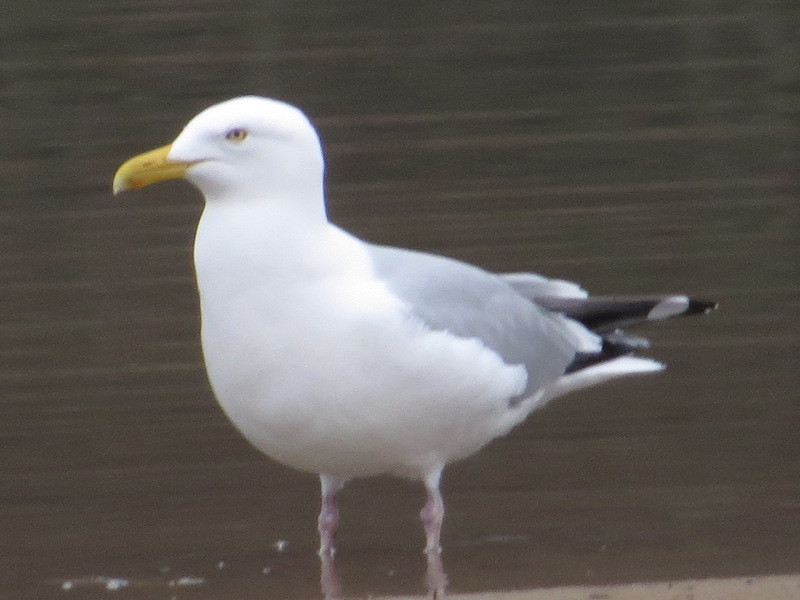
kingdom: Animalia
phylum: Chordata
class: Aves
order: Charadriiformes
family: Laridae
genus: Larus
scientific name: Larus argentatus
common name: Herring gull
